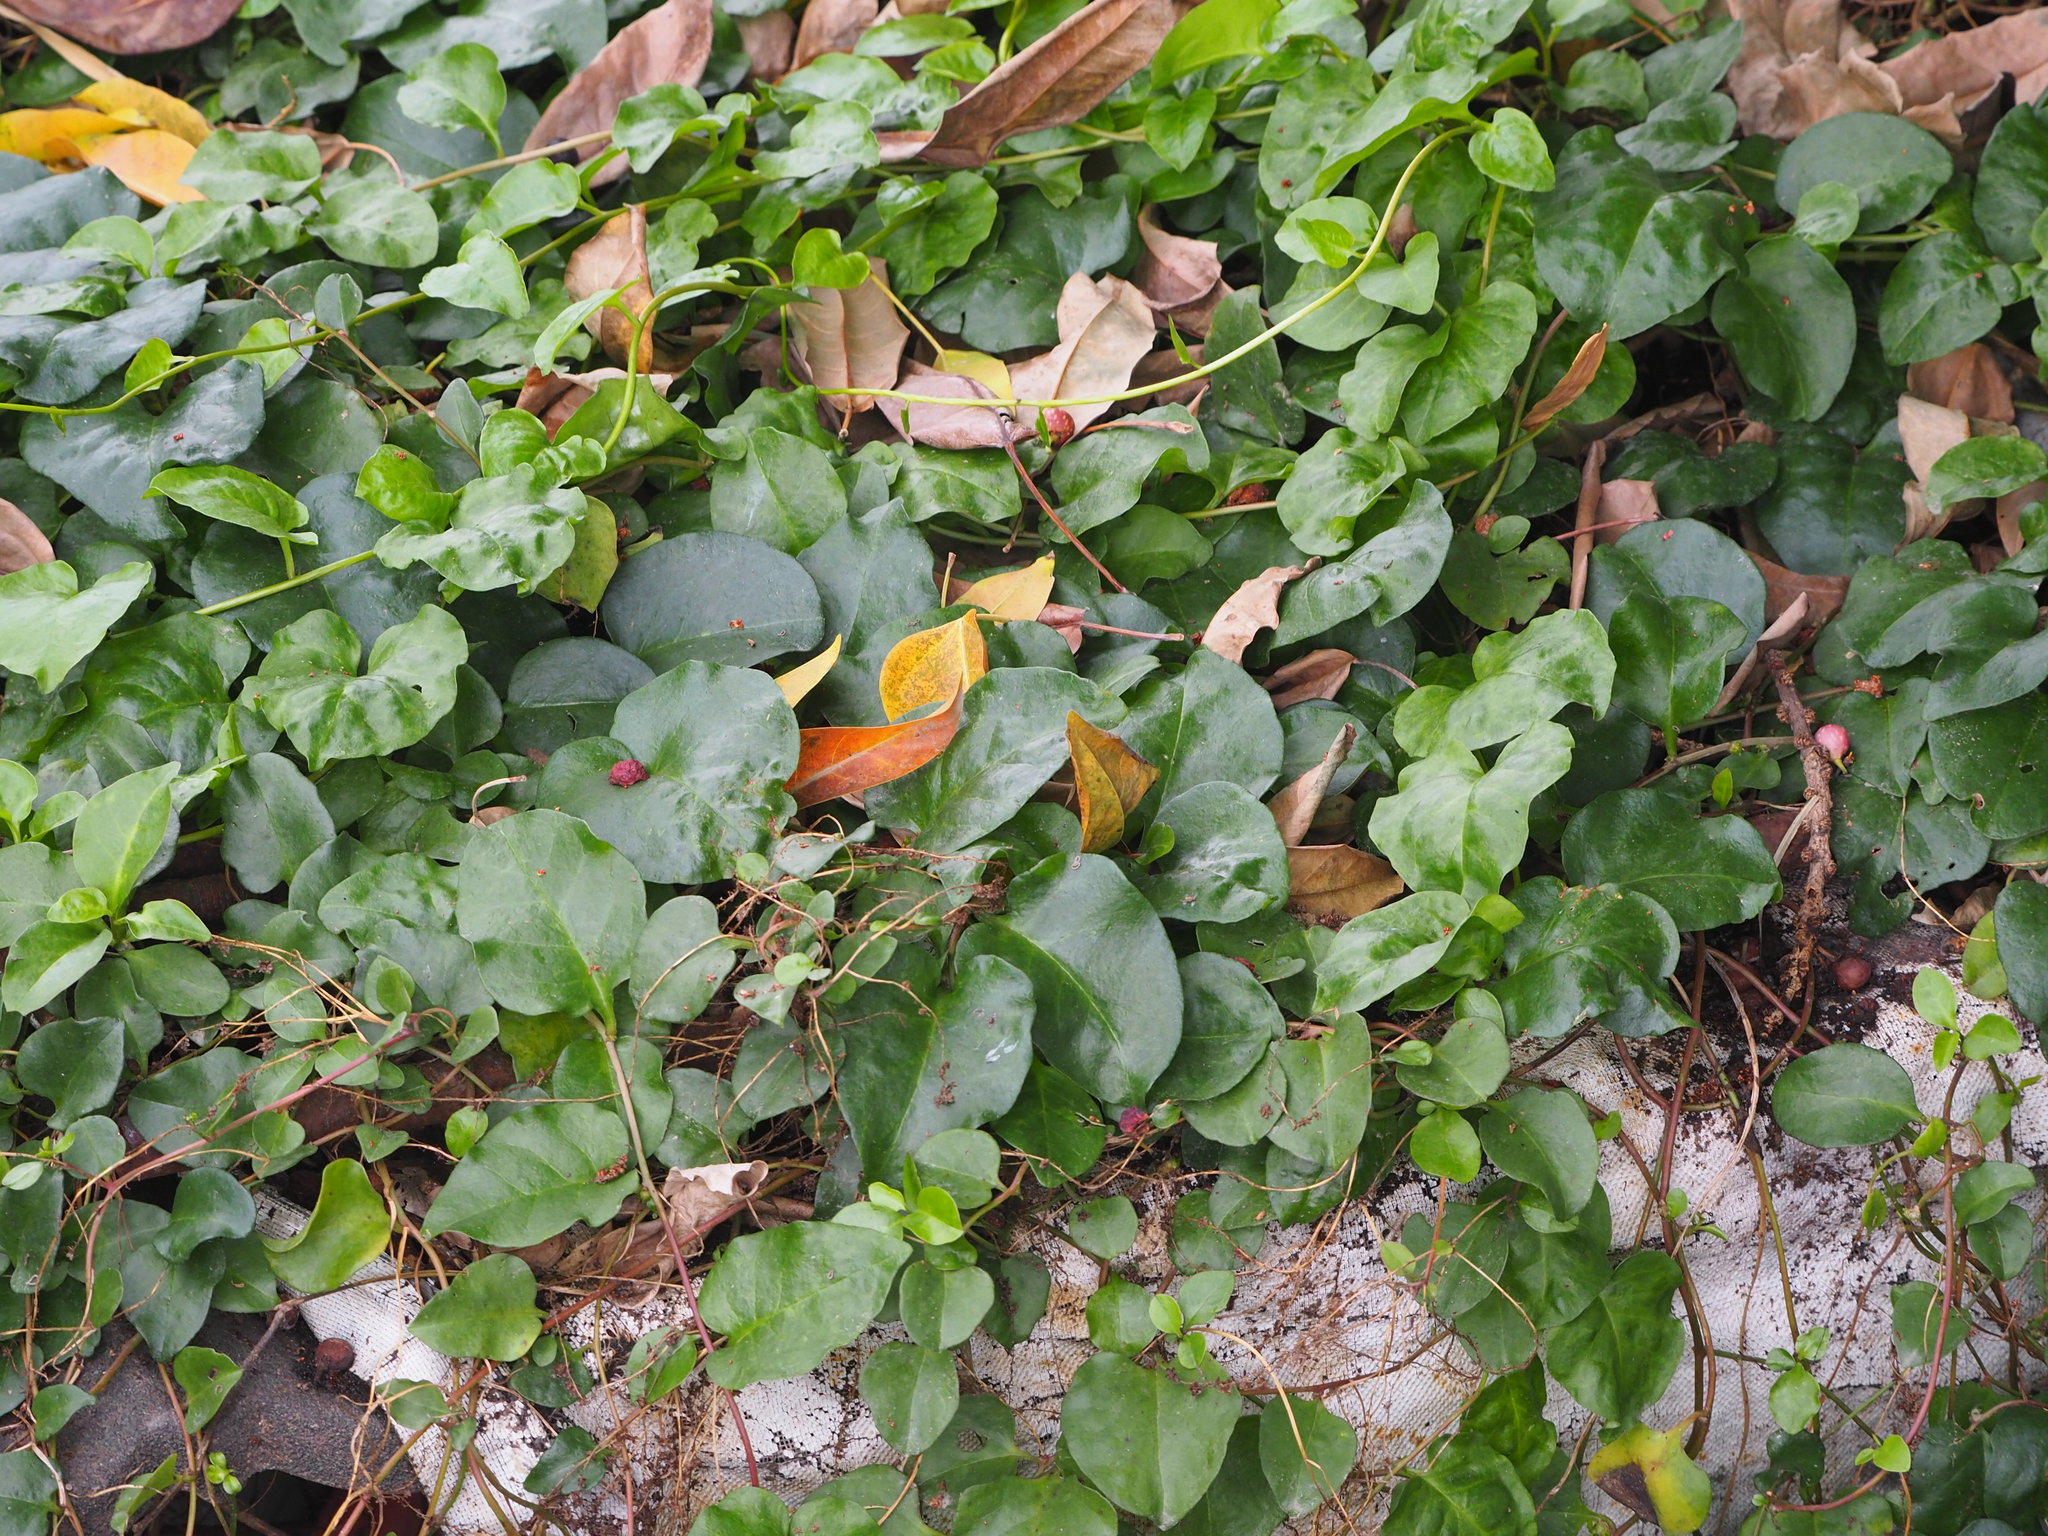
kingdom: Plantae
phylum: Tracheophyta
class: Magnoliopsida
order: Caryophyllales
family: Basellaceae
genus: Anredera
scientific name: Anredera cordifolia
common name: Heartleaf madeiravine
